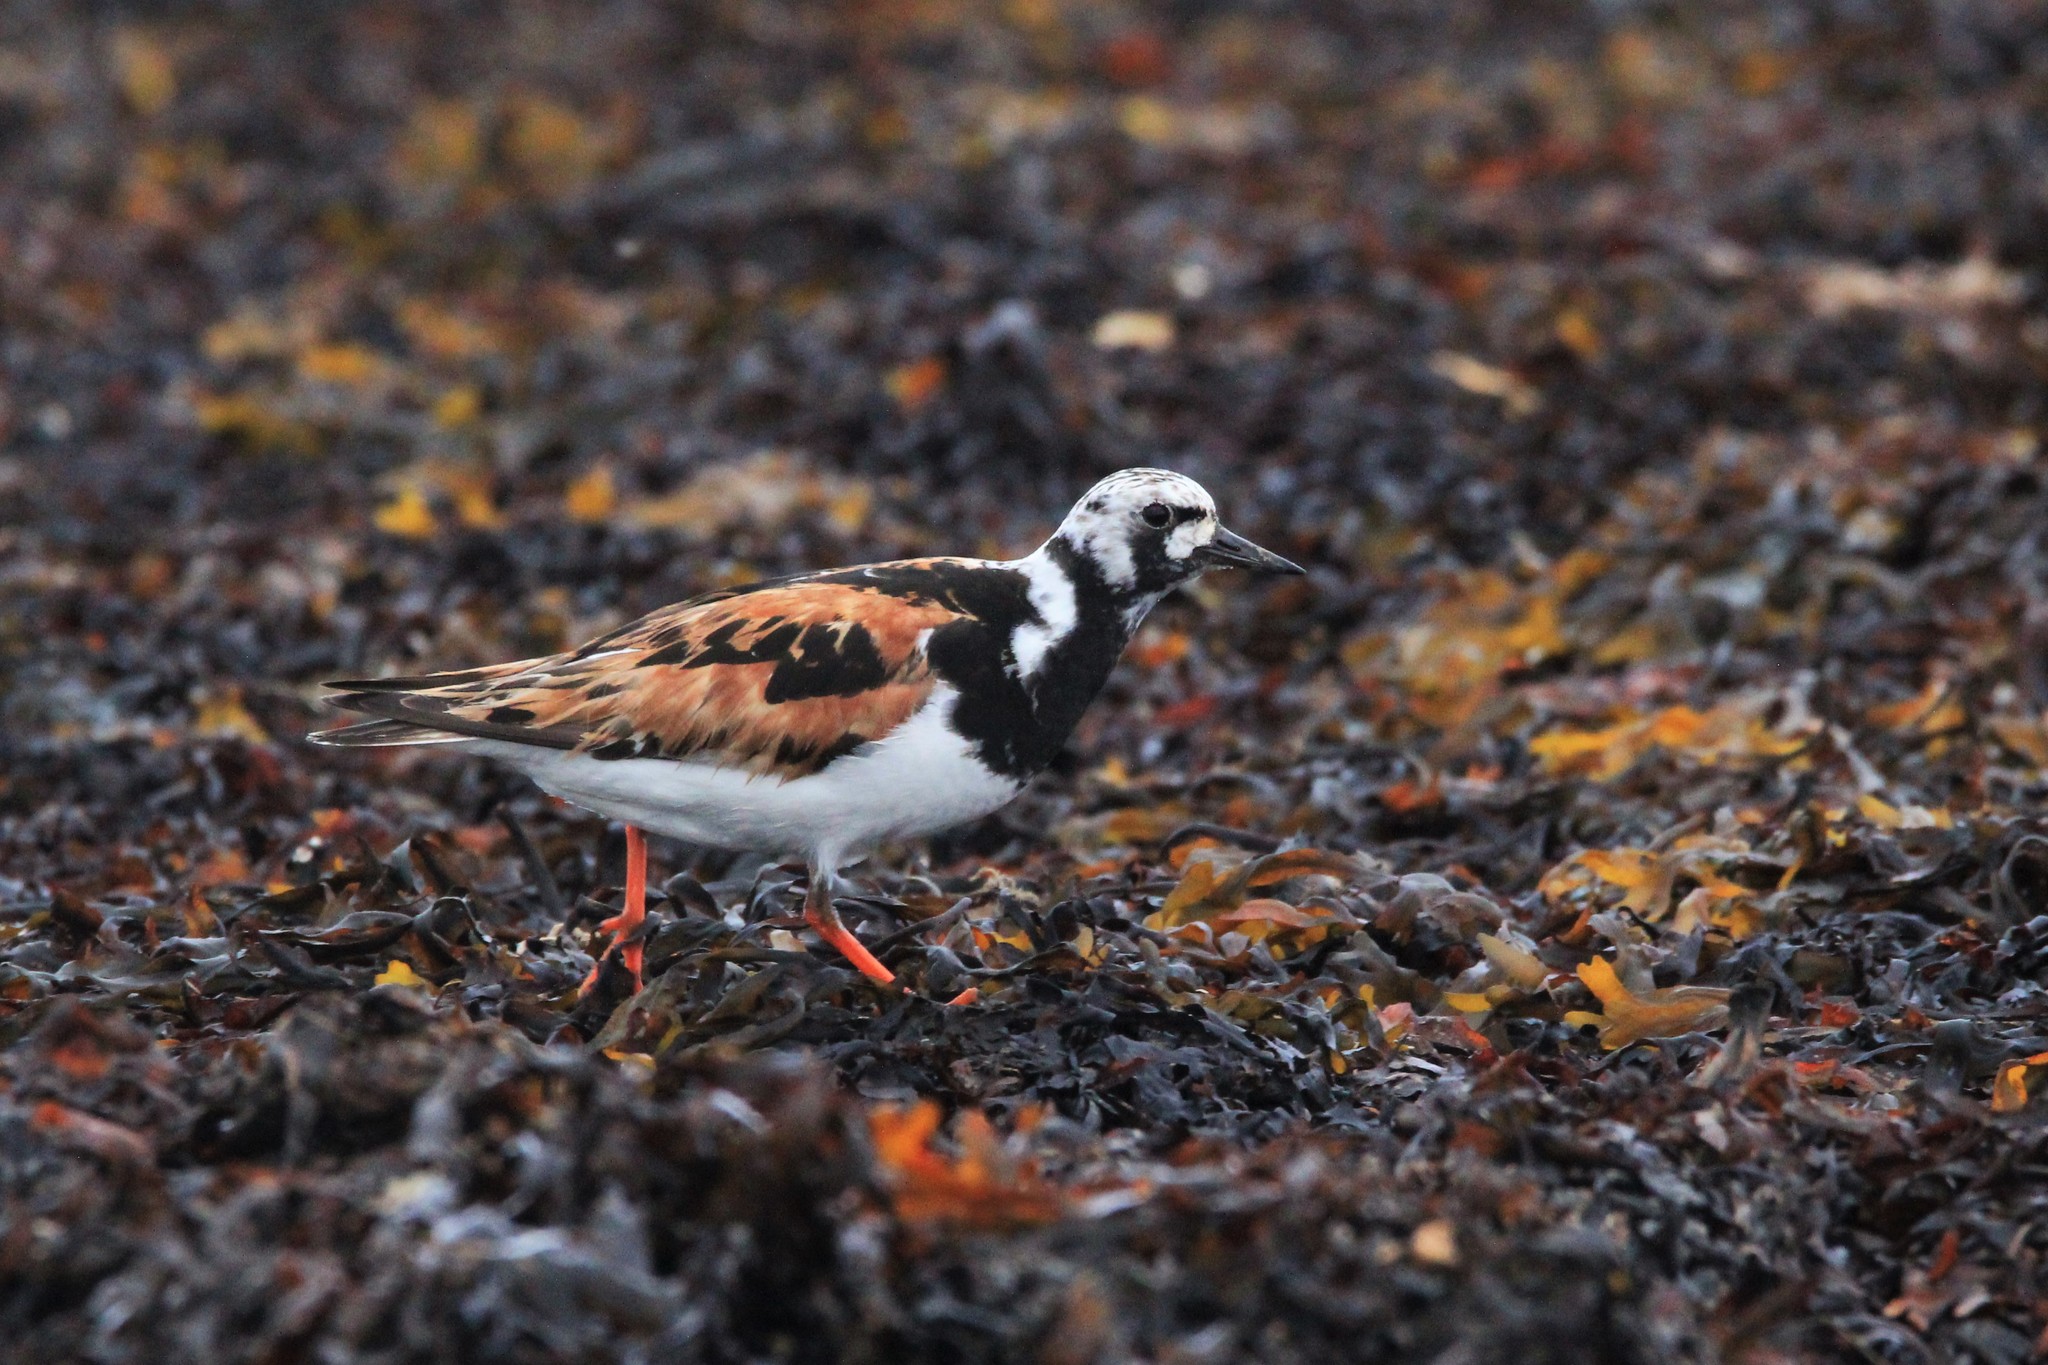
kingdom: Animalia
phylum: Chordata
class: Aves
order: Charadriiformes
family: Scolopacidae
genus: Arenaria
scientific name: Arenaria interpres
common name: Ruddy turnstone
